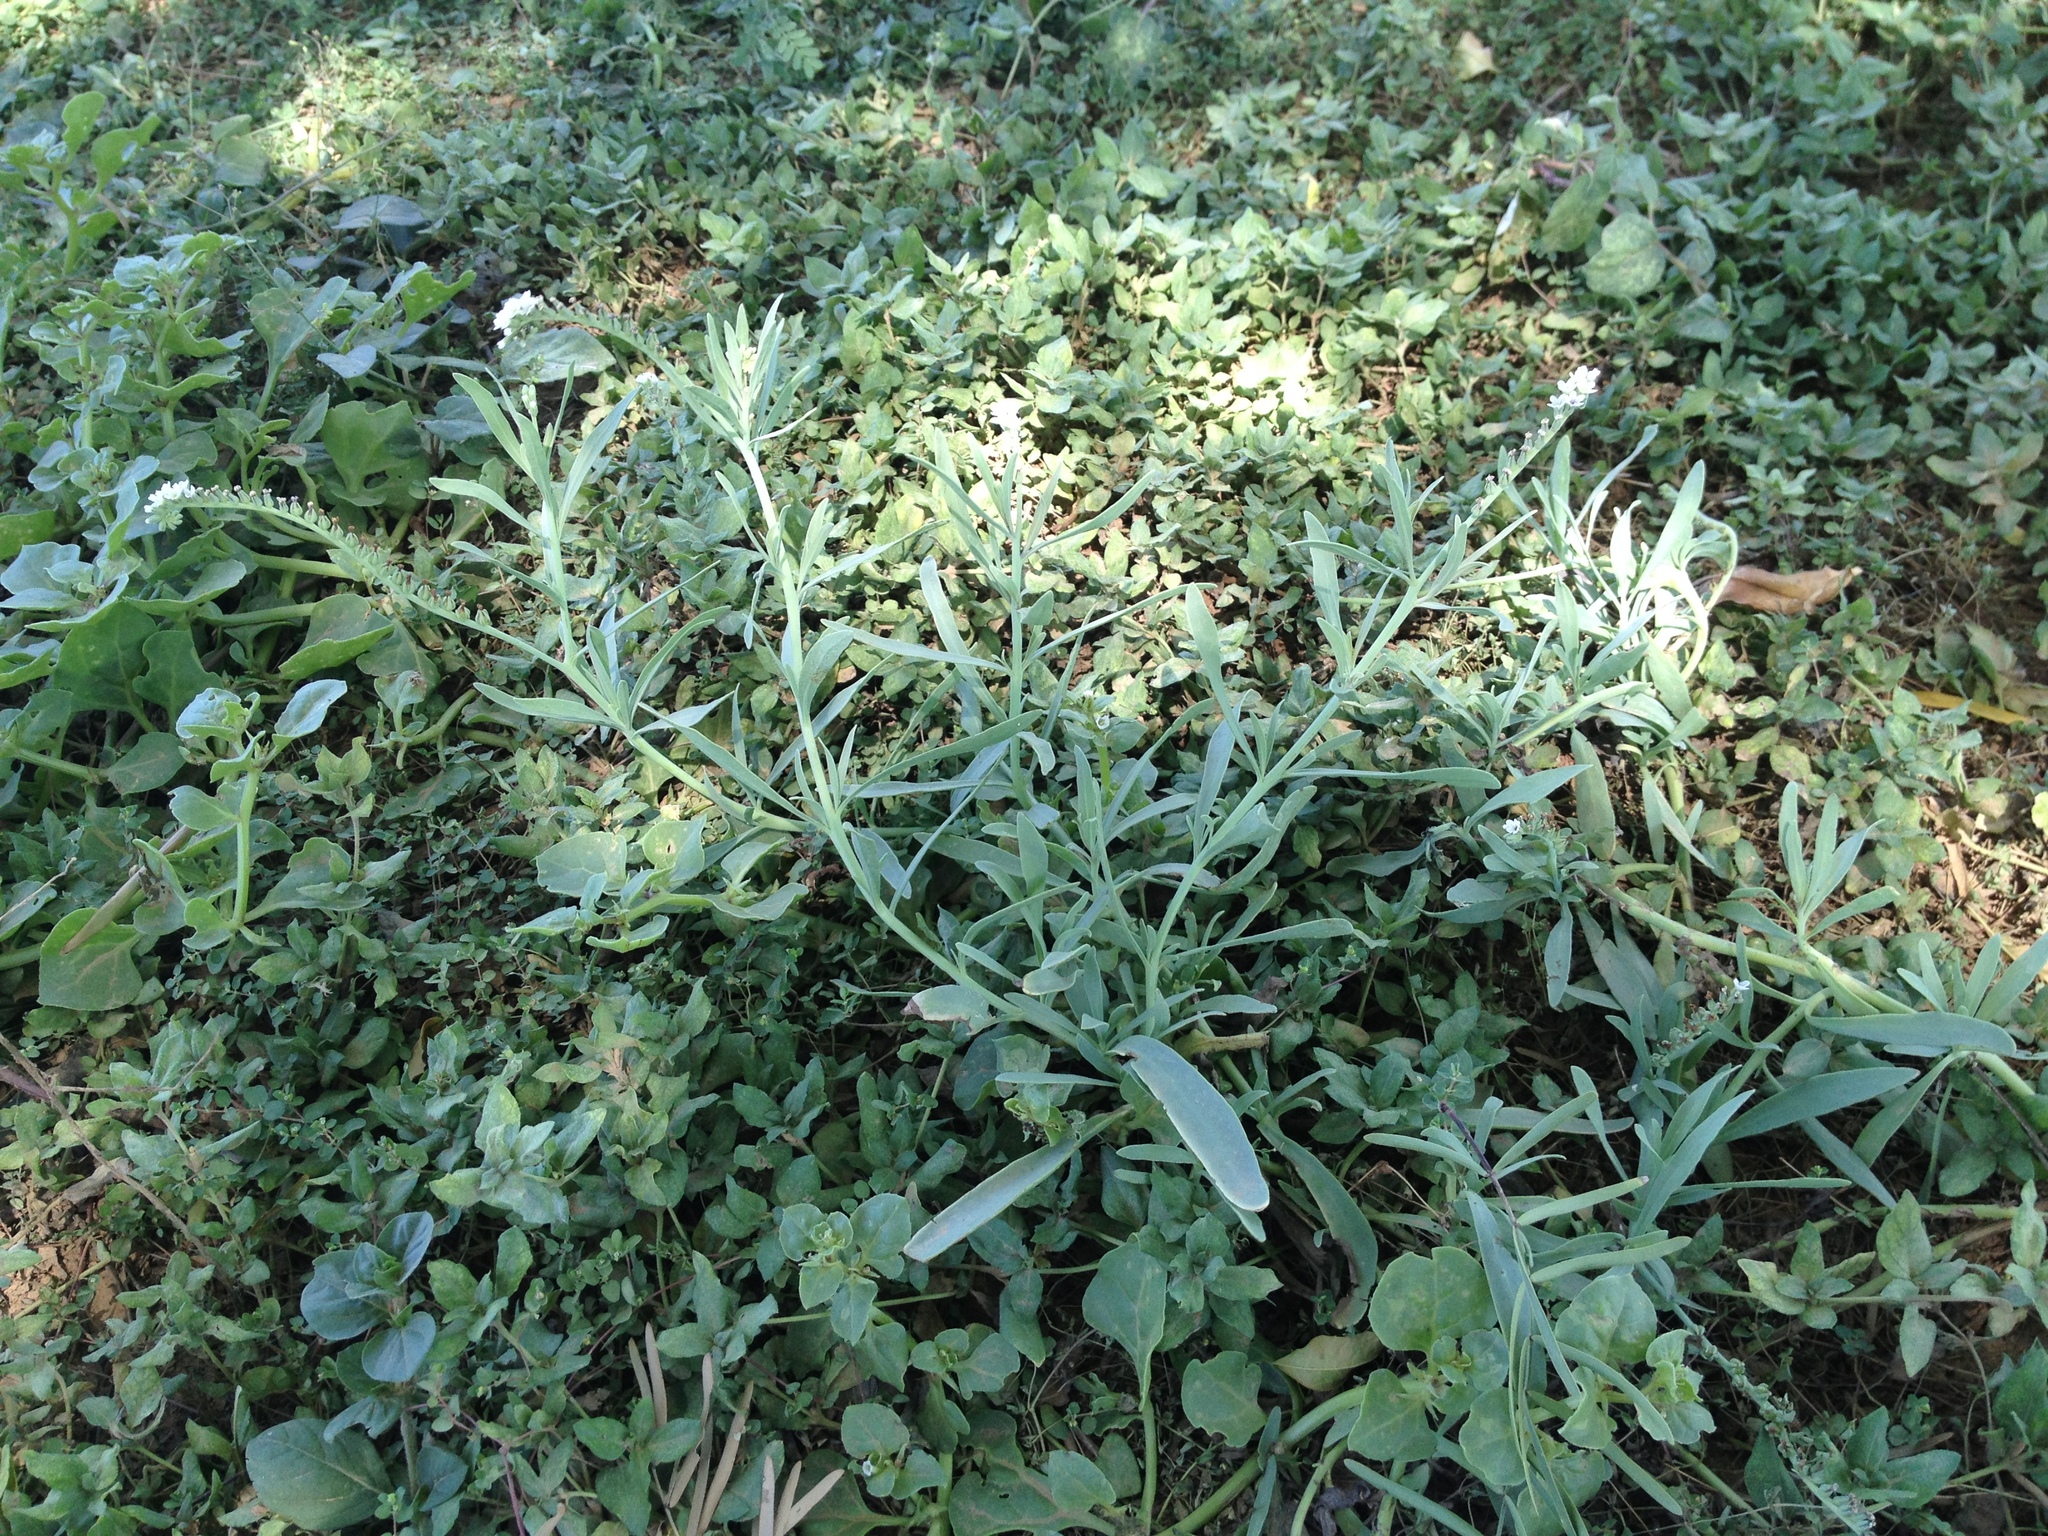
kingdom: Plantae
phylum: Tracheophyta
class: Magnoliopsida
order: Boraginales
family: Heliotropiaceae
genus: Heliotropium
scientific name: Heliotropium curassavicum
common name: Seaside heliotrope
